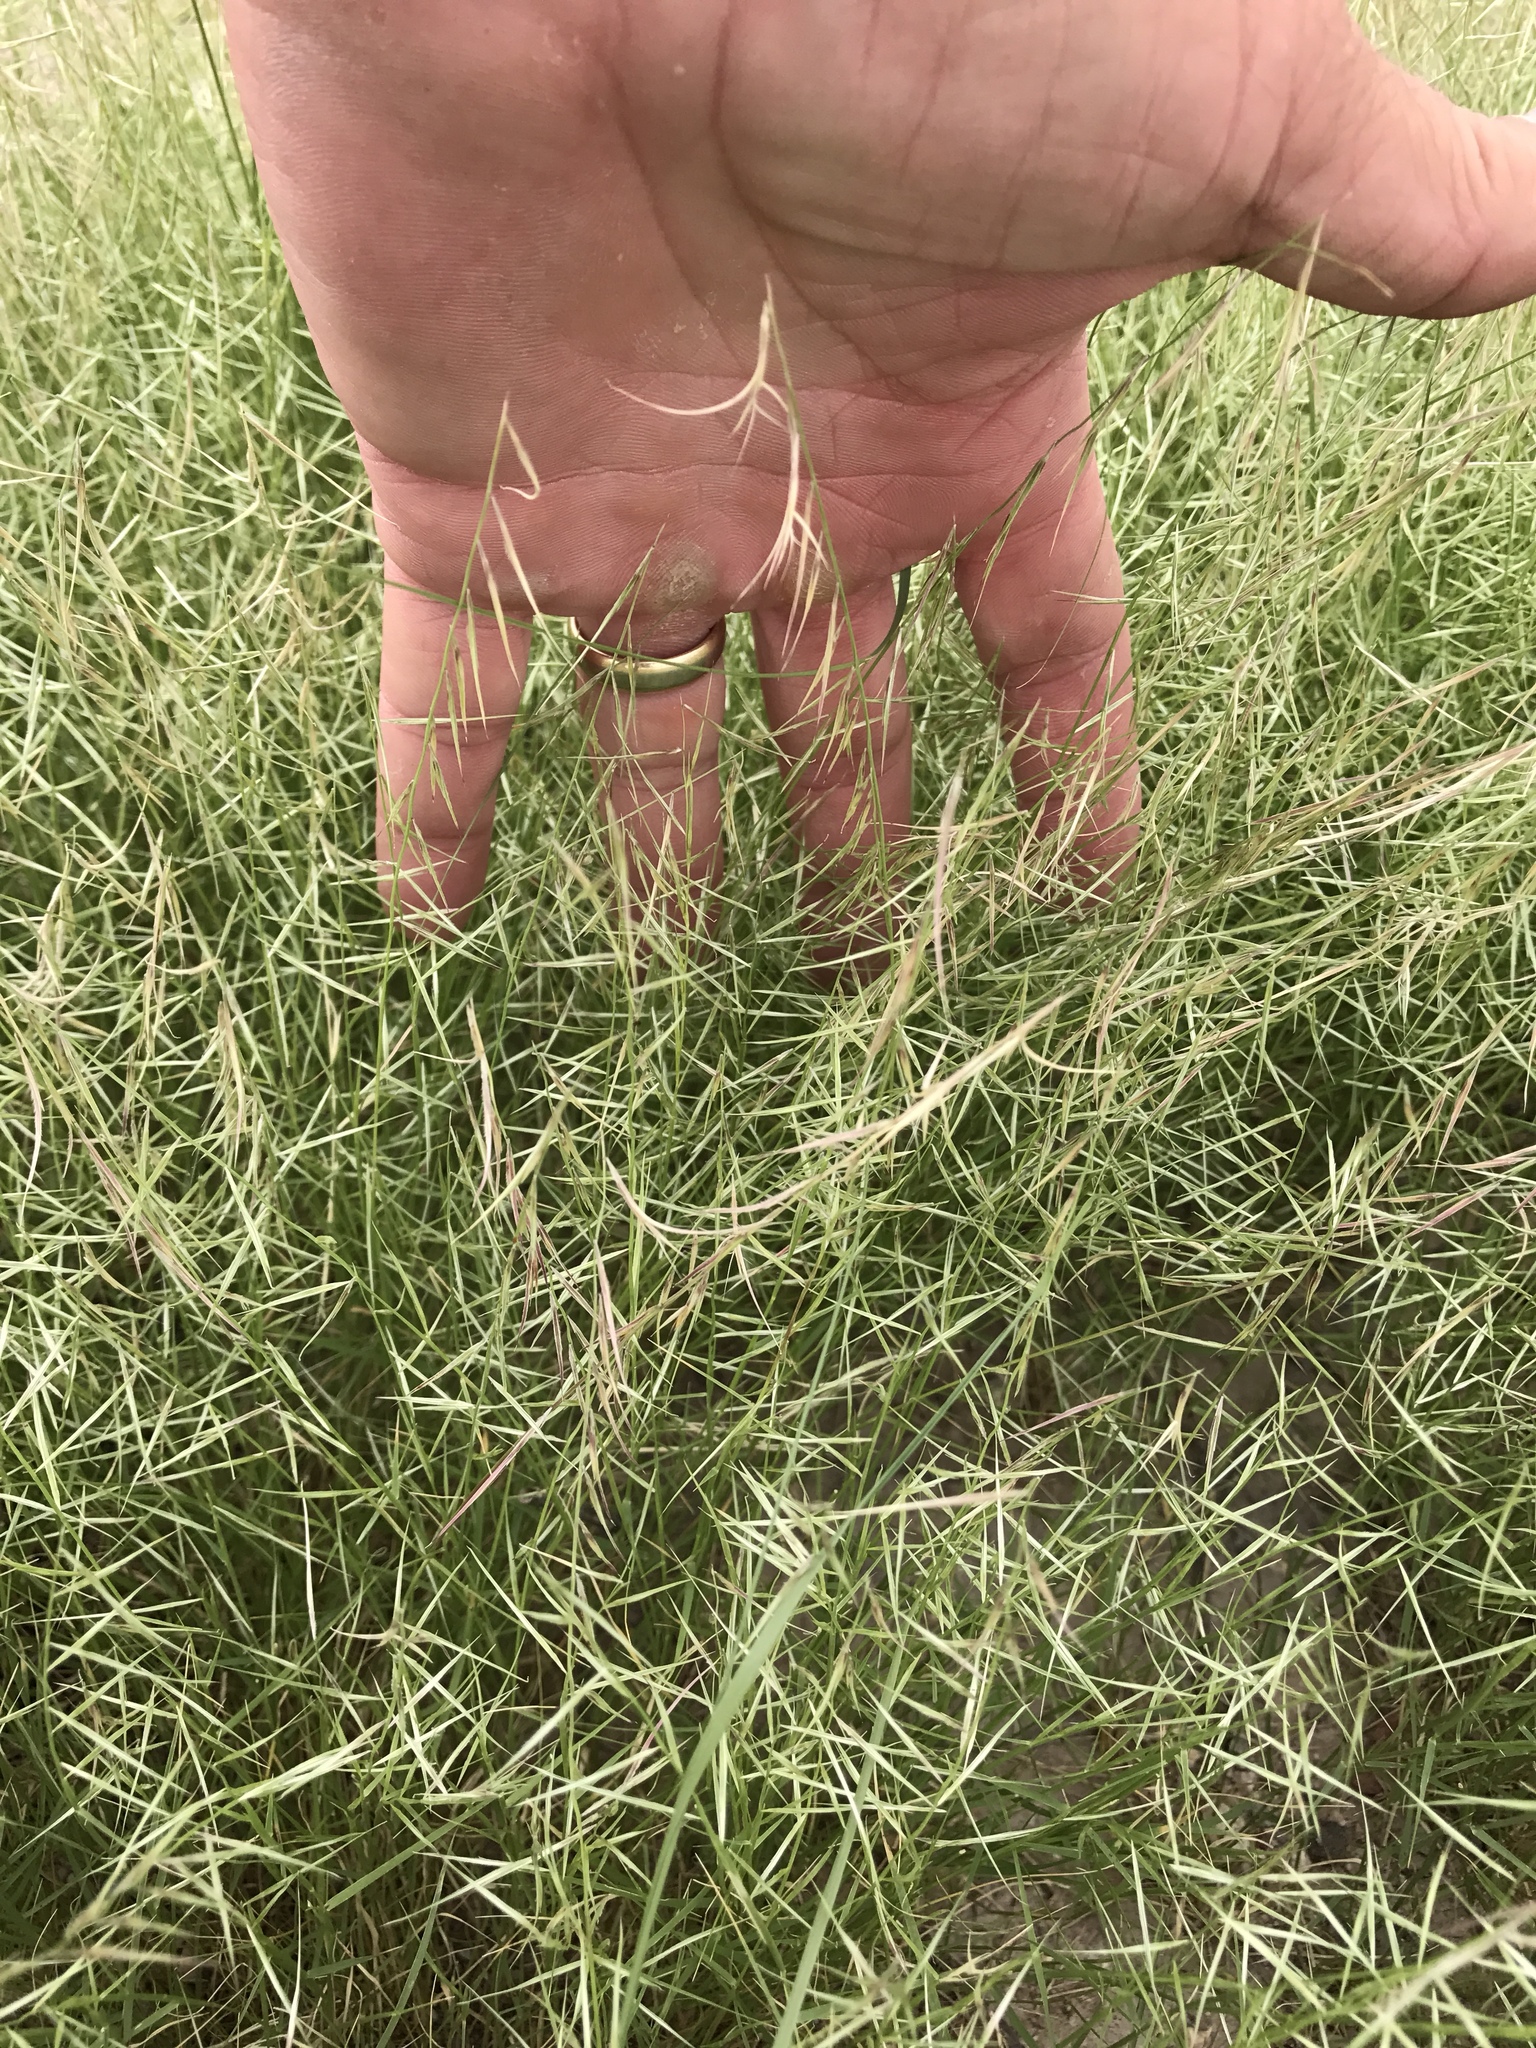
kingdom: Plantae
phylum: Tracheophyta
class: Liliopsida
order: Poales
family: Poaceae
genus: Bouteloua
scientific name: Bouteloua aristidoides
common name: Needle grama
